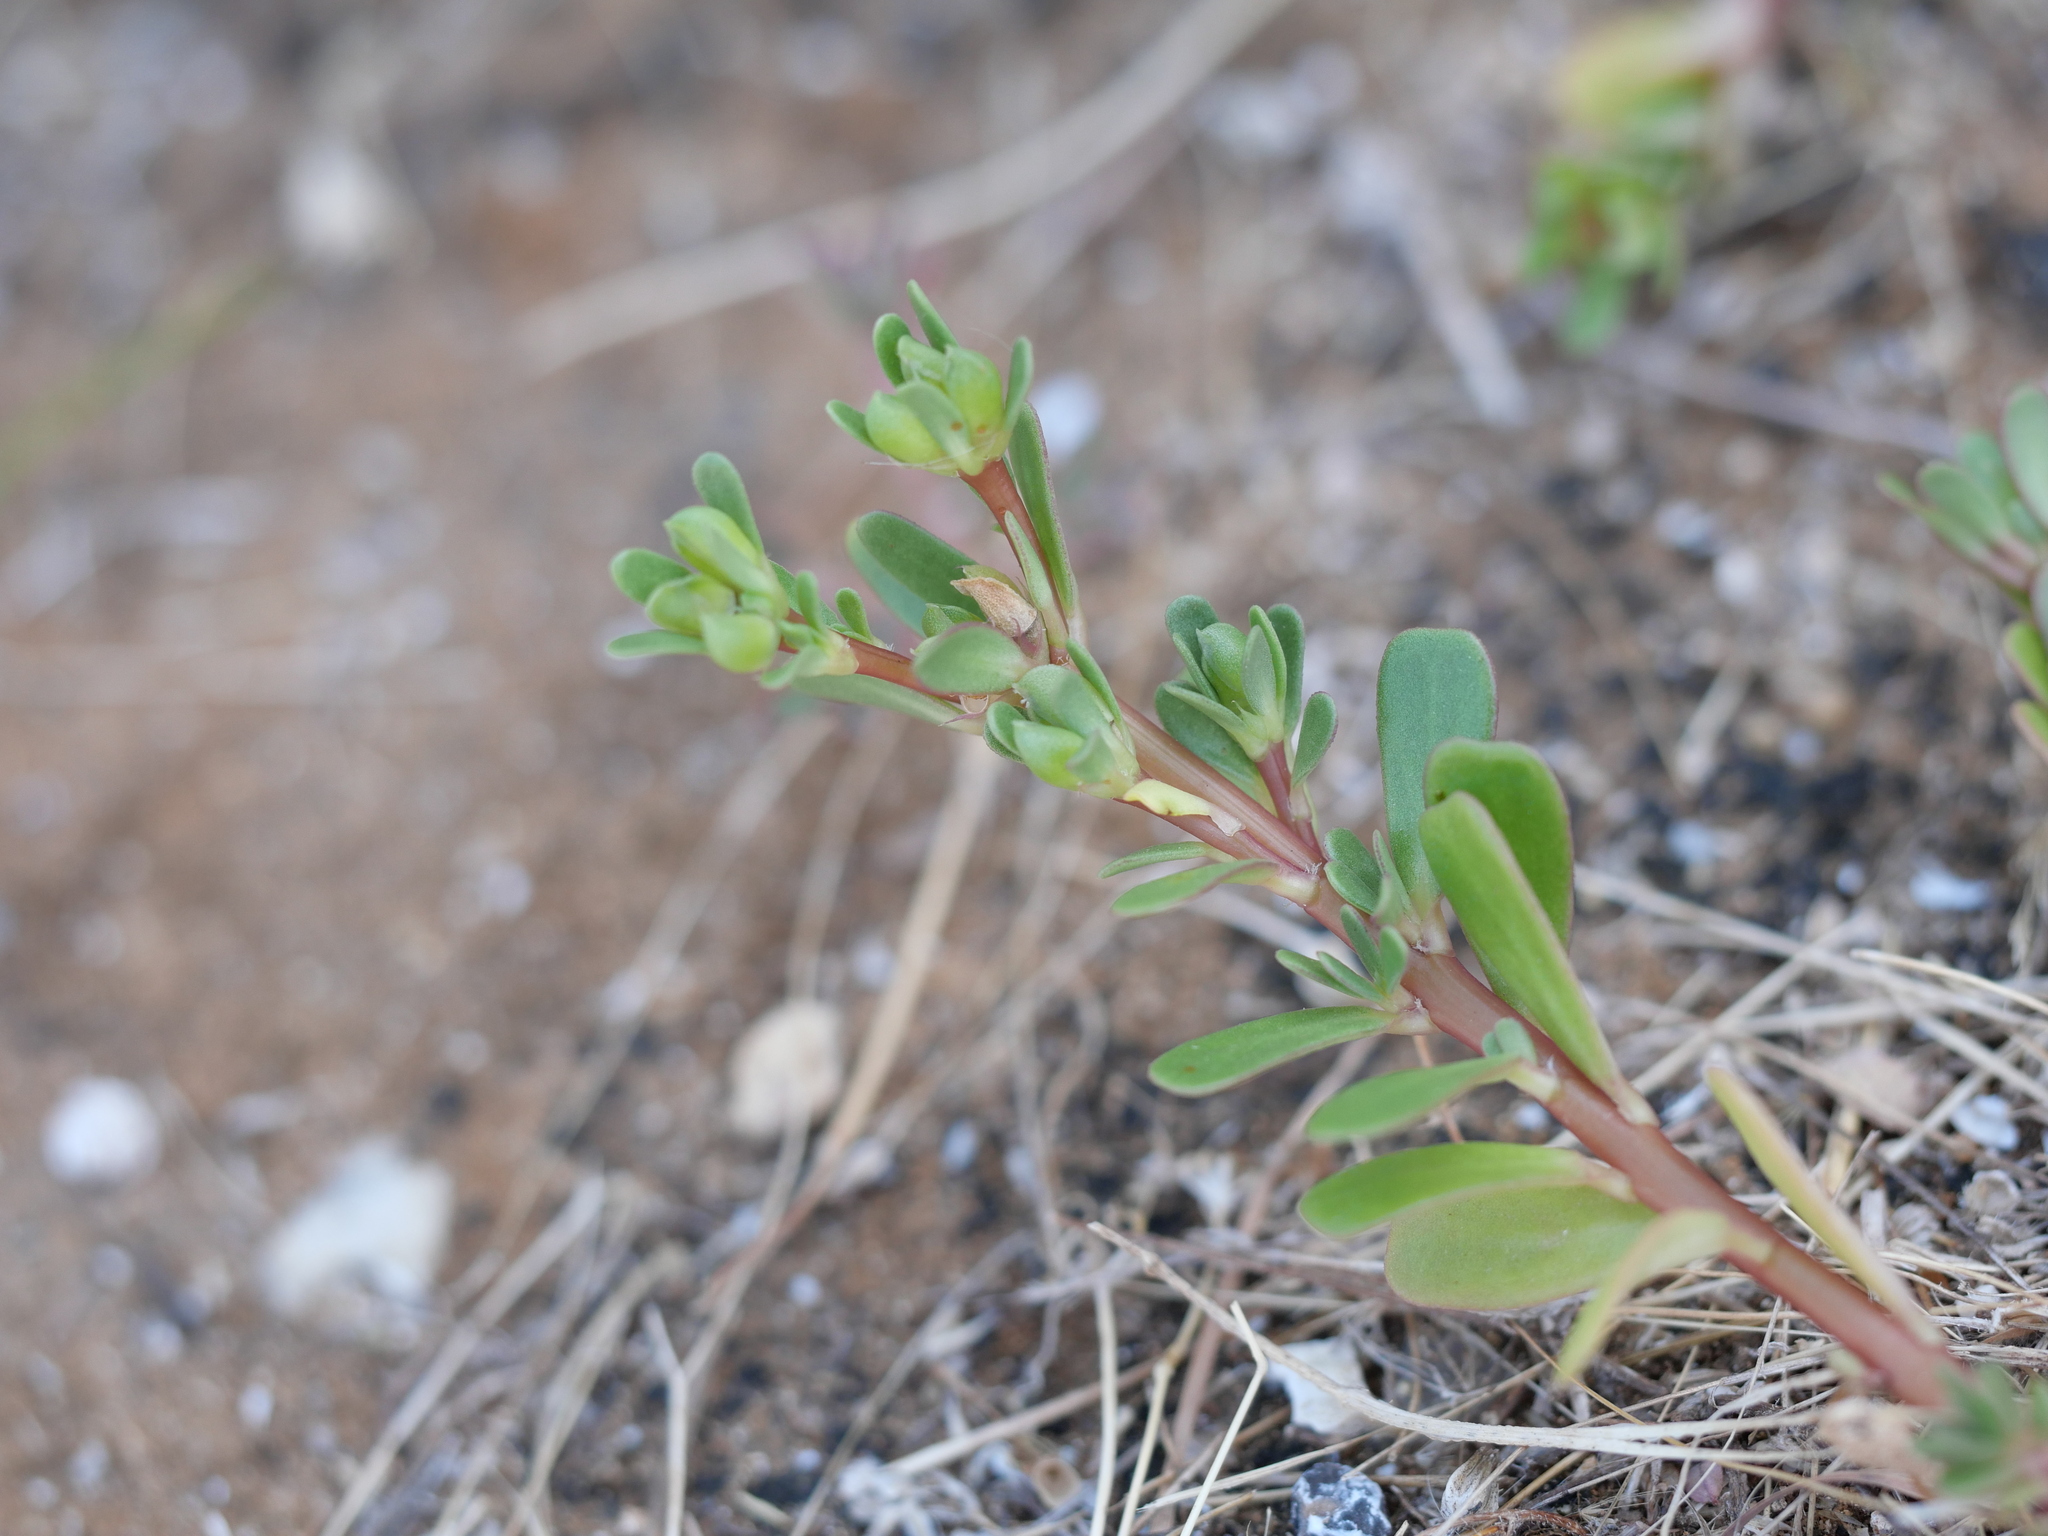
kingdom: Plantae
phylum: Tracheophyta
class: Magnoliopsida
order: Caryophyllales
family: Portulacaceae
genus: Portulaca
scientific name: Portulaca oleracea
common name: Common purslane
